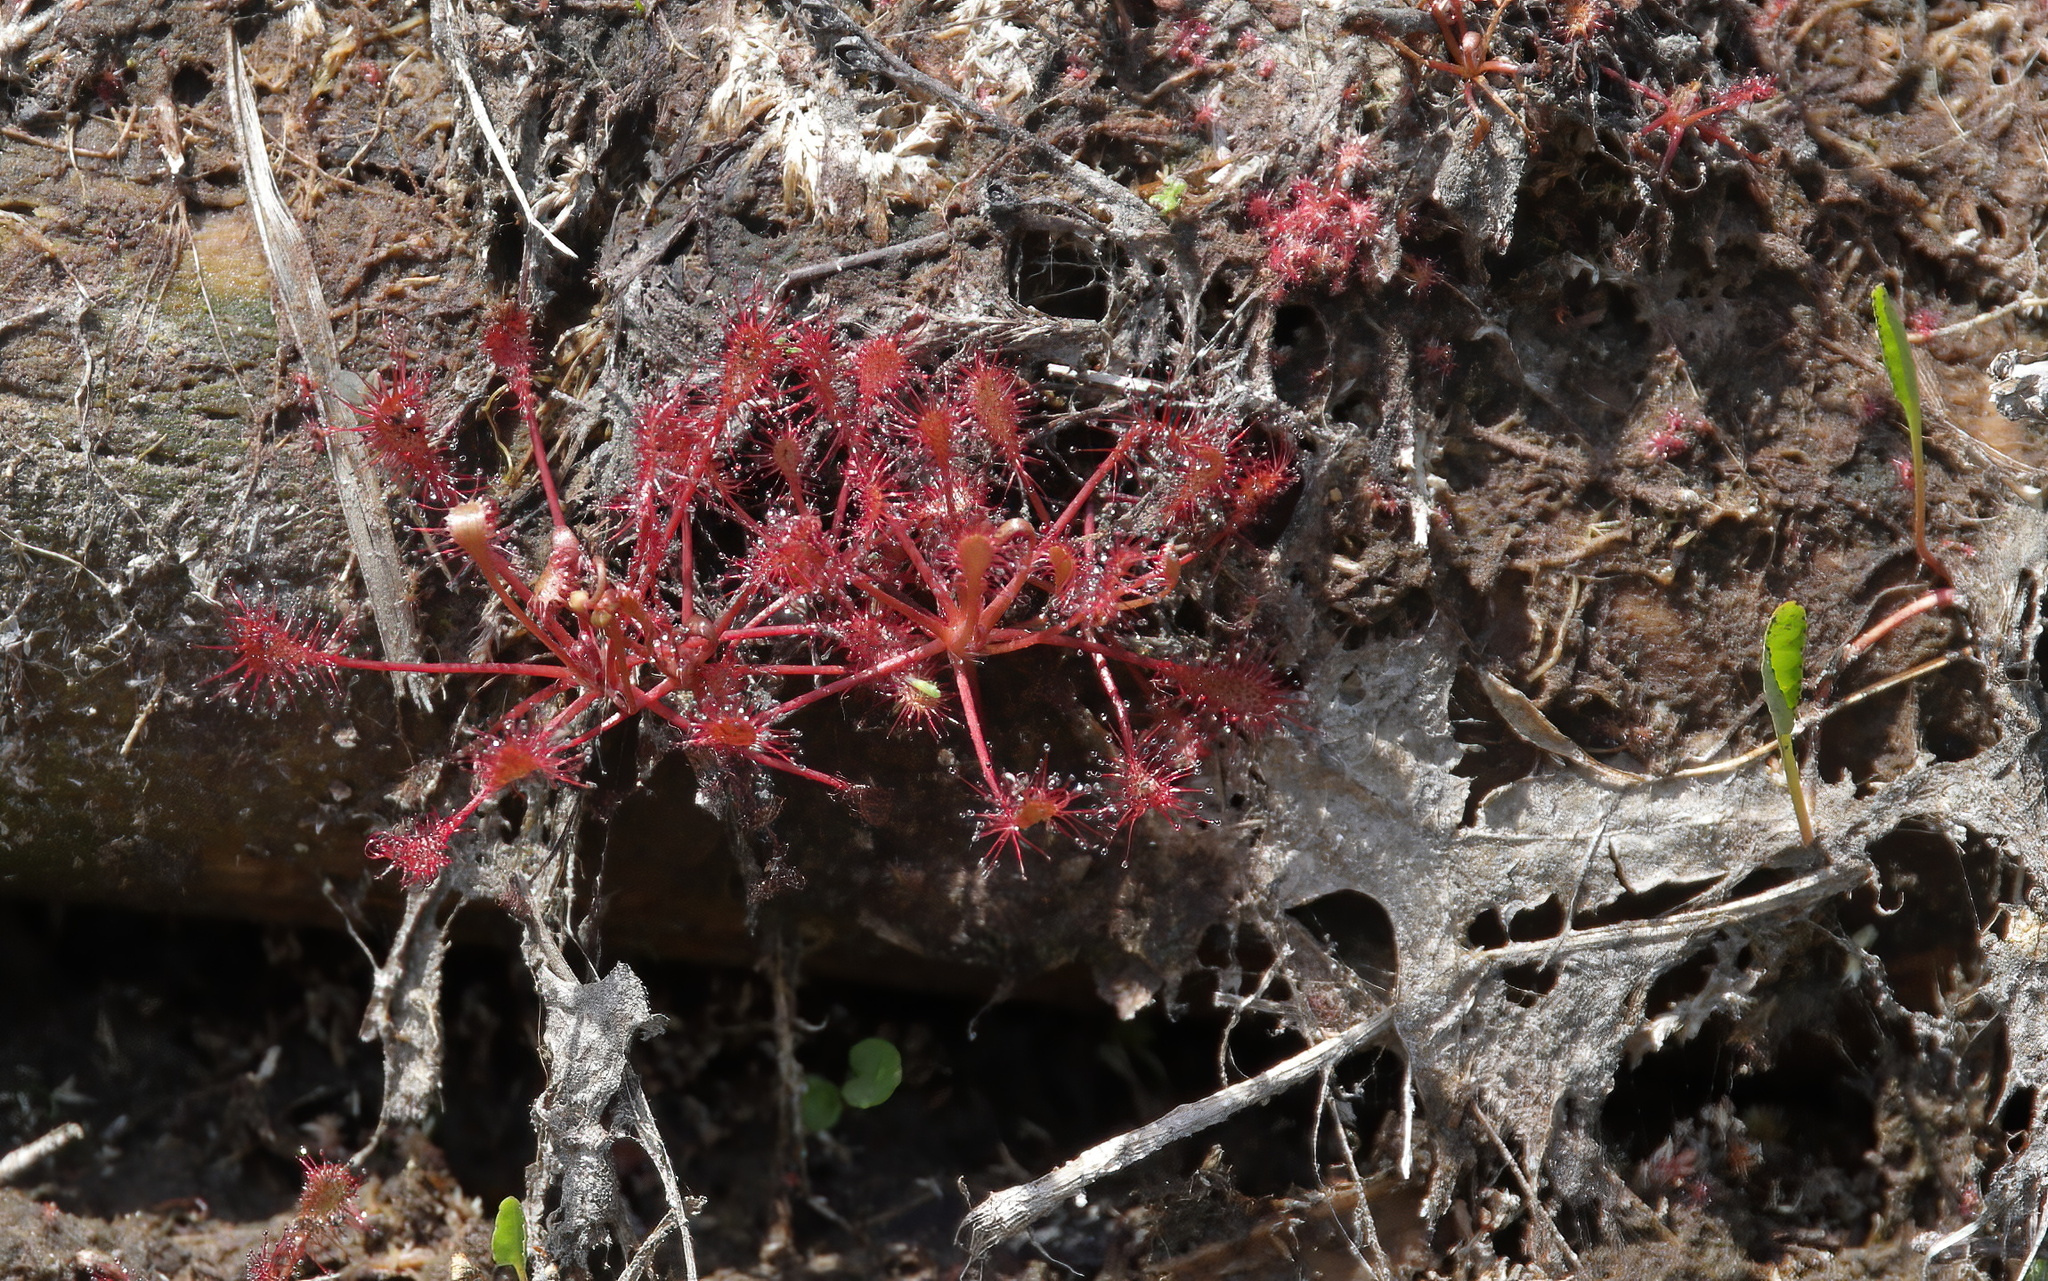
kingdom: Plantae
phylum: Tracheophyta
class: Magnoliopsida
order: Caryophyllales
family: Droseraceae
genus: Drosera
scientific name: Drosera intermedia
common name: Oblong-leaved sundew
